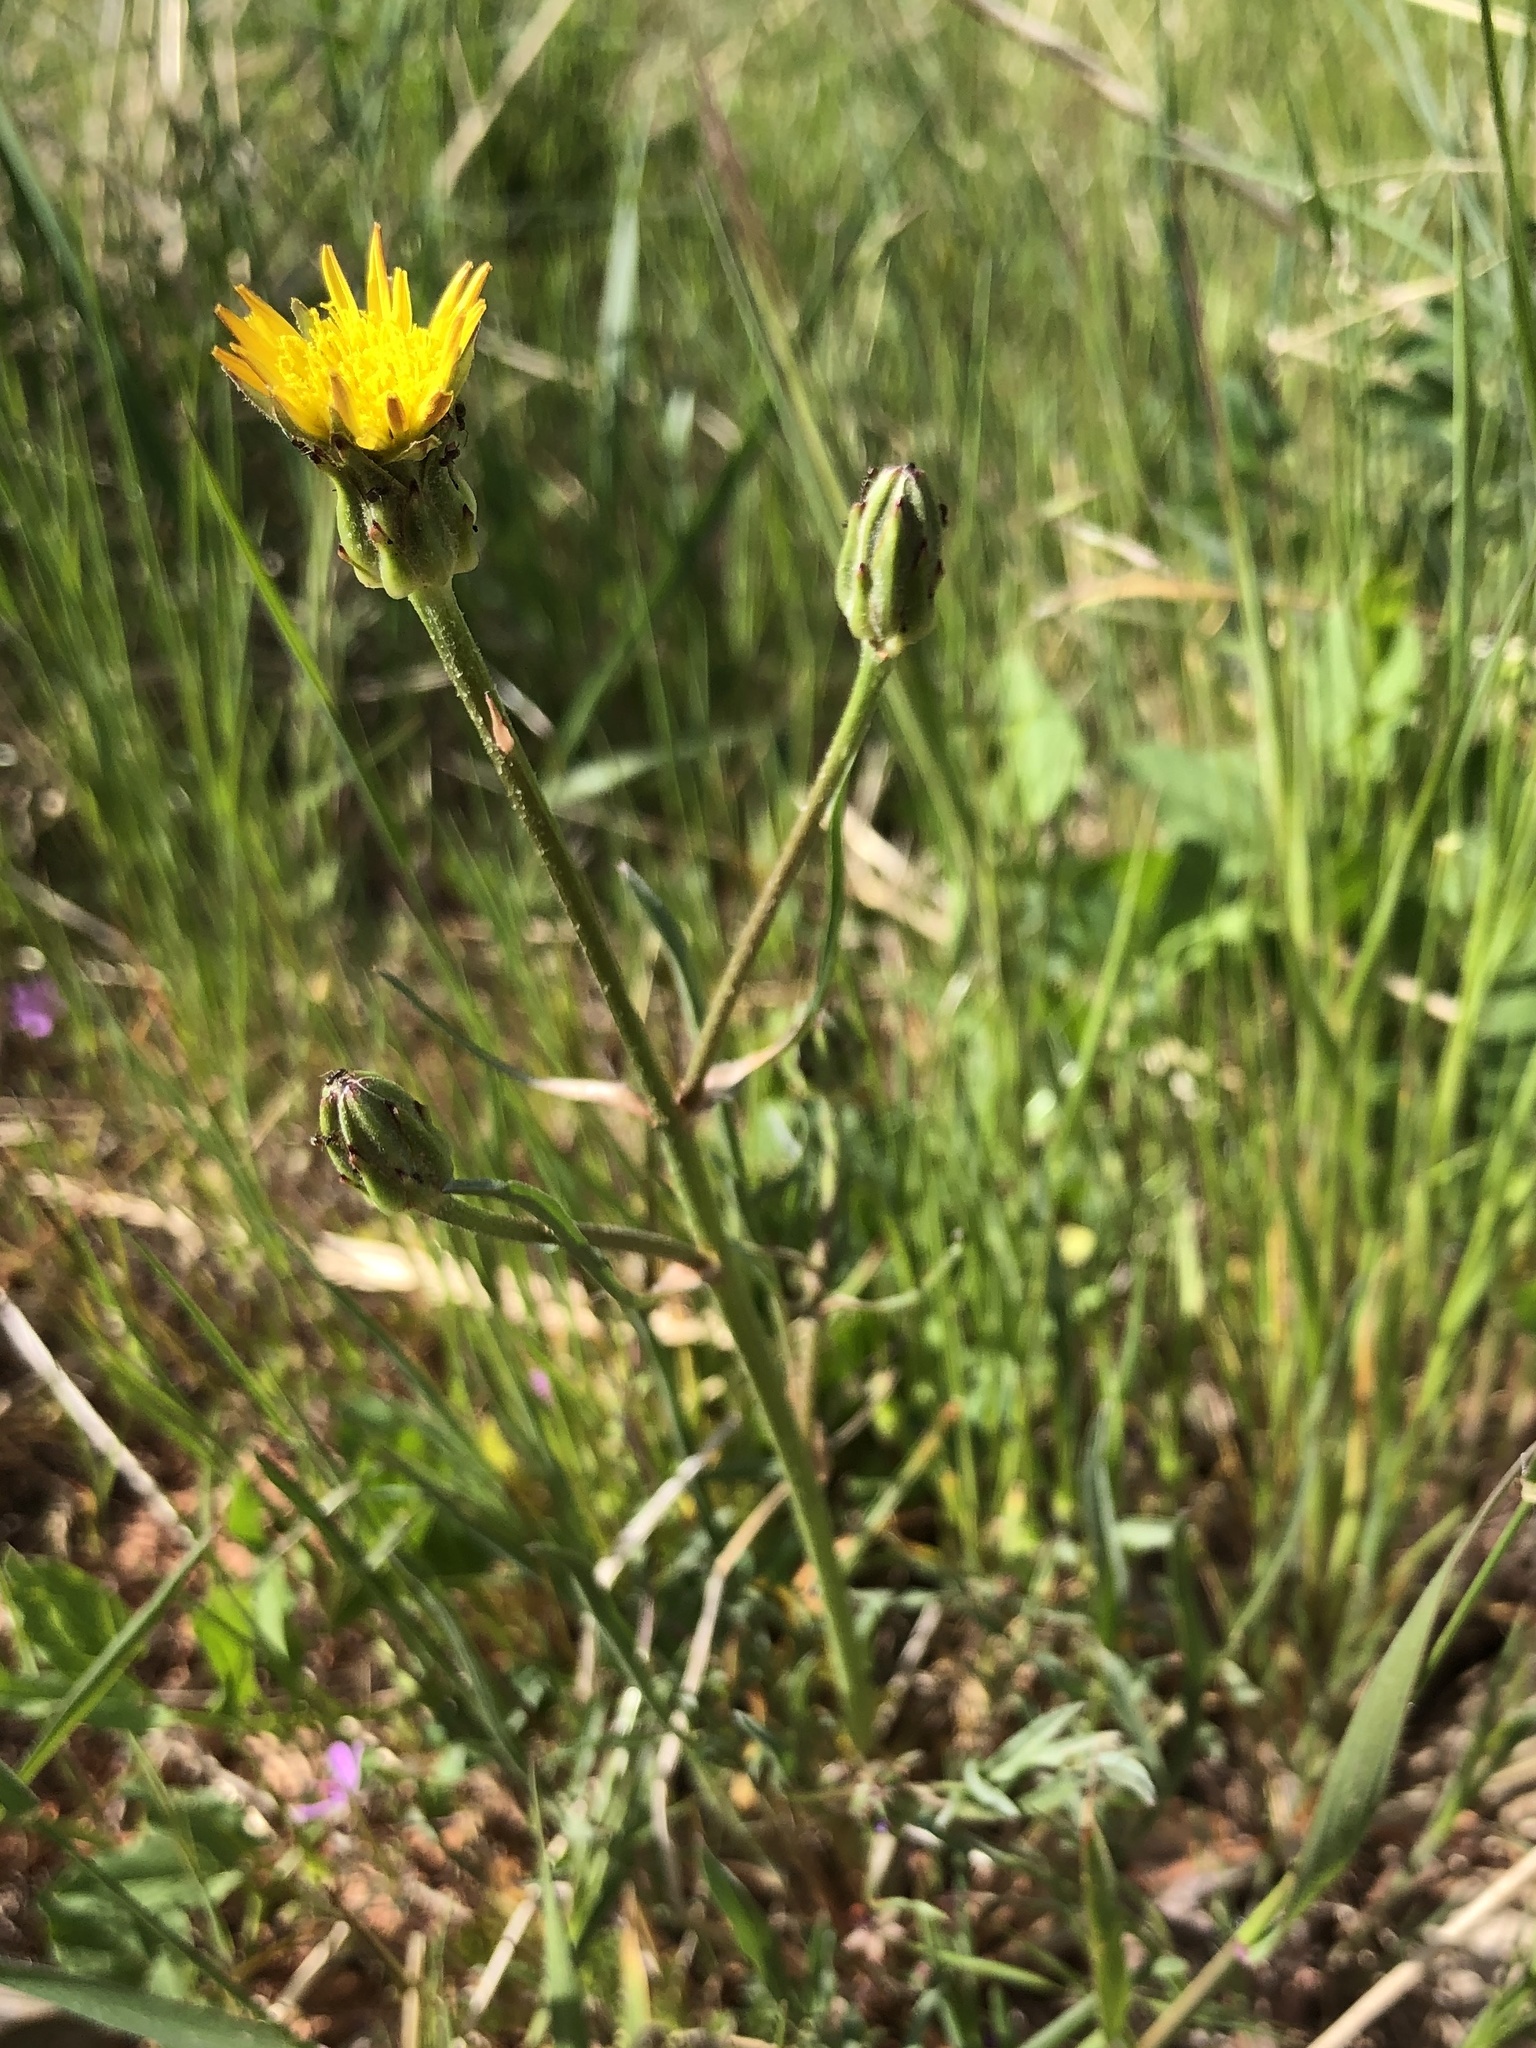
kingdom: Plantae
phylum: Tracheophyta
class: Magnoliopsida
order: Asterales
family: Asteraceae
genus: Scorzonera
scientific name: Scorzonera laciniata
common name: Cutleaf vipergrass
